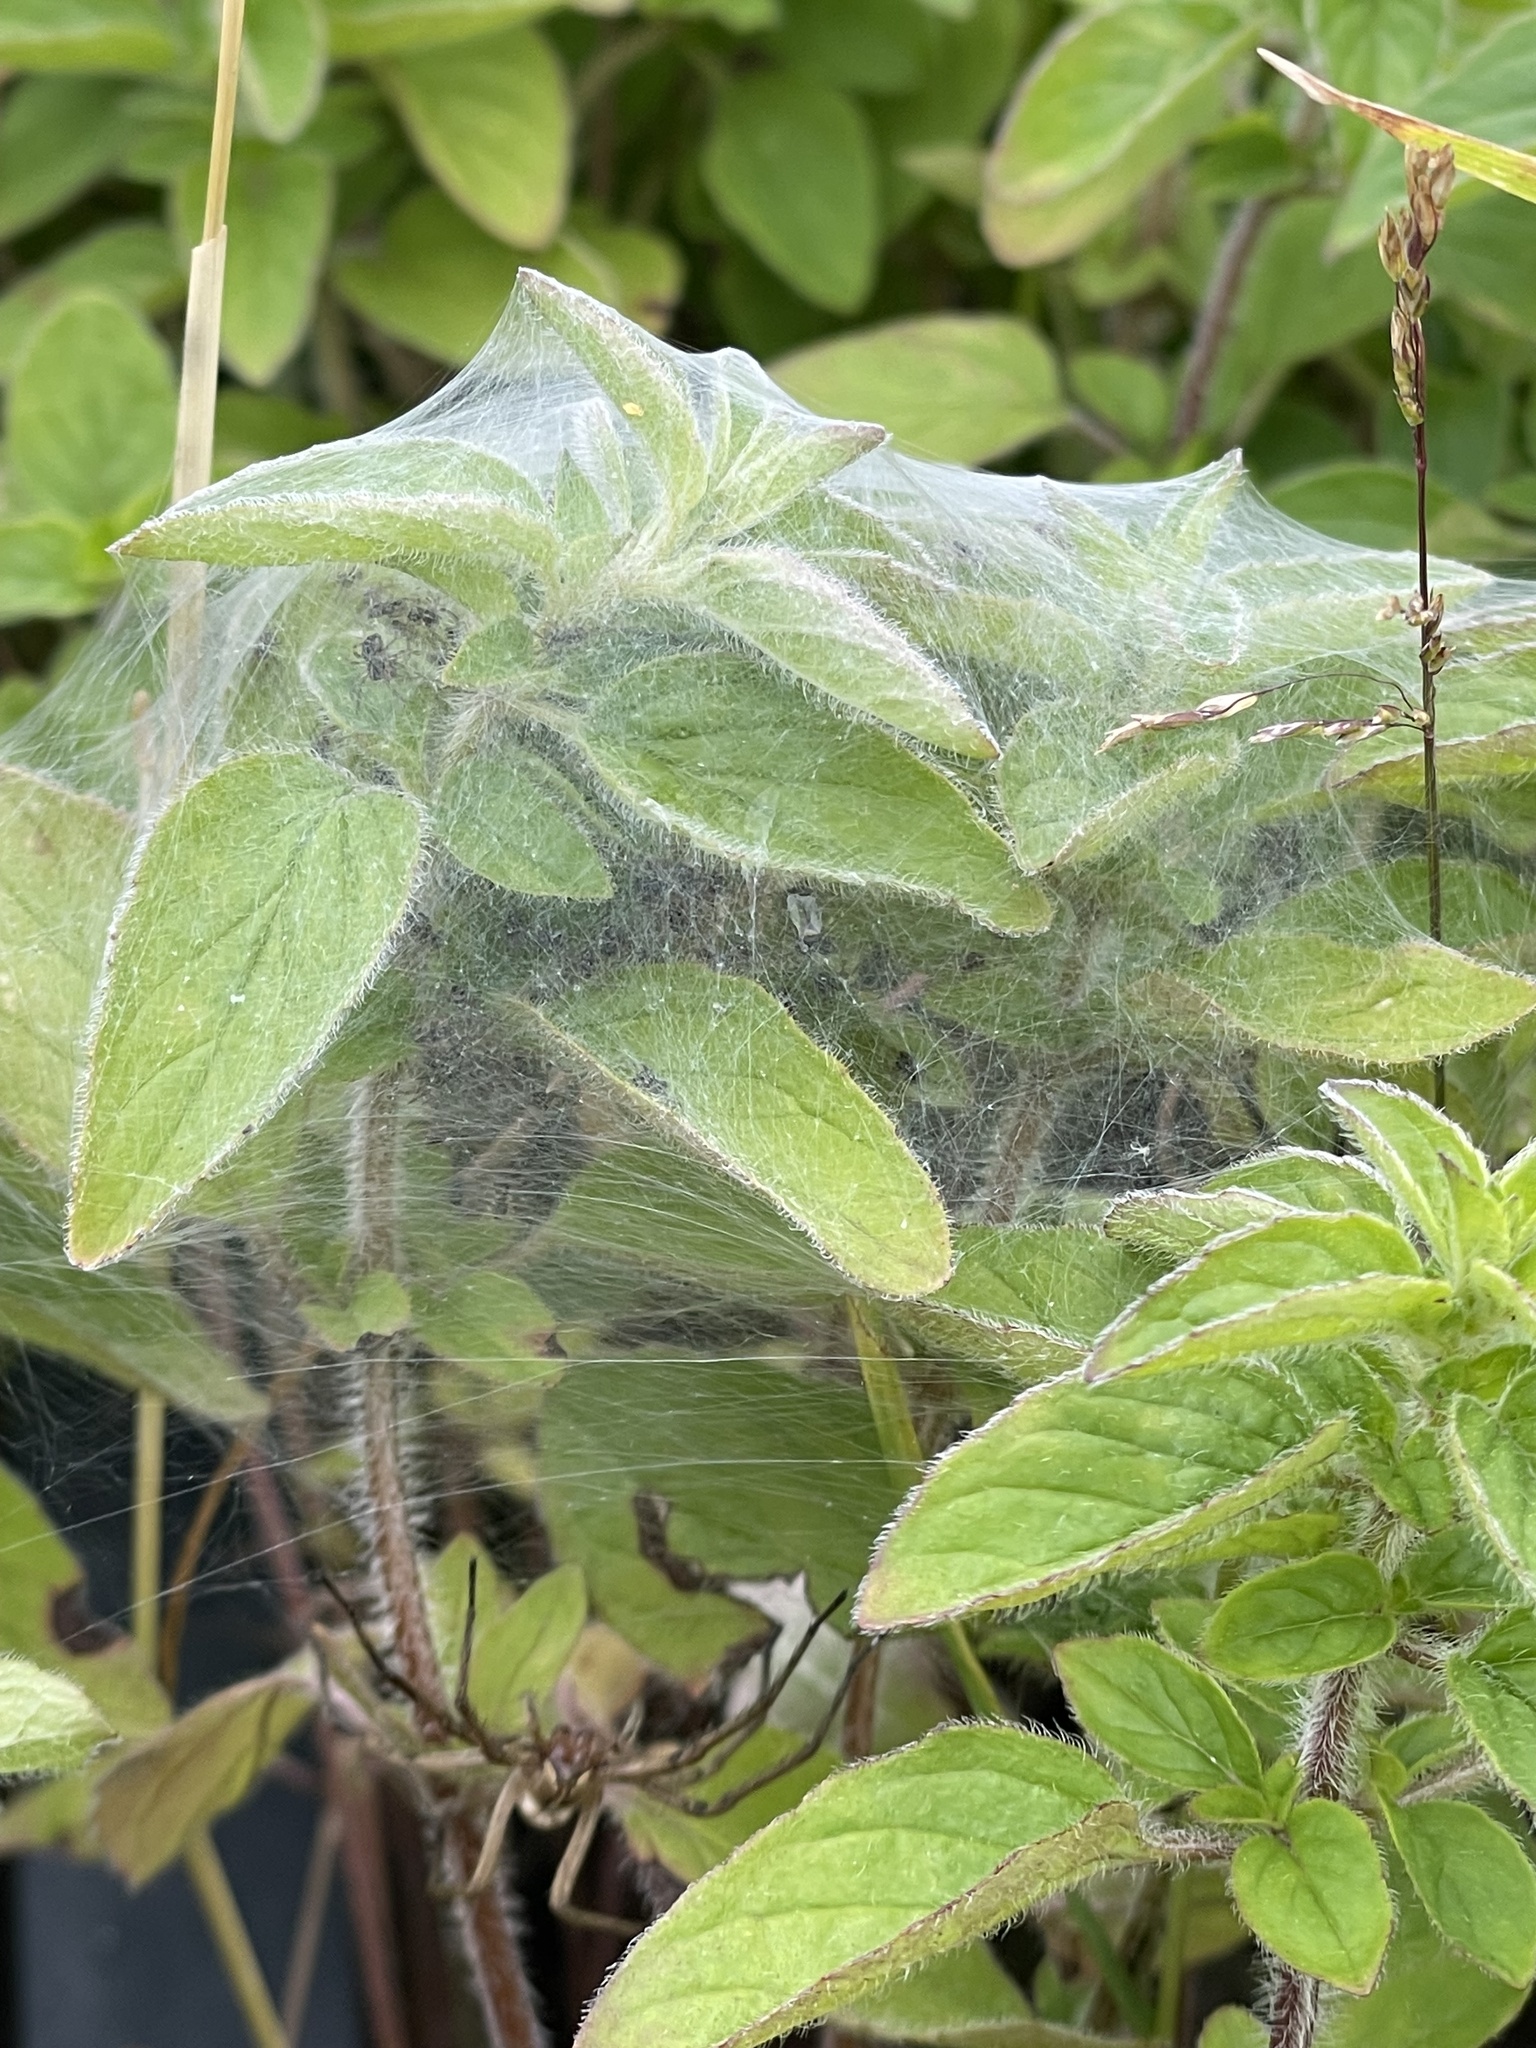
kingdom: Animalia
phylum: Arthropoda
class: Arachnida
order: Araneae
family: Pisauridae
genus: Pisaura
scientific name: Pisaura mirabilis
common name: Tent spider
